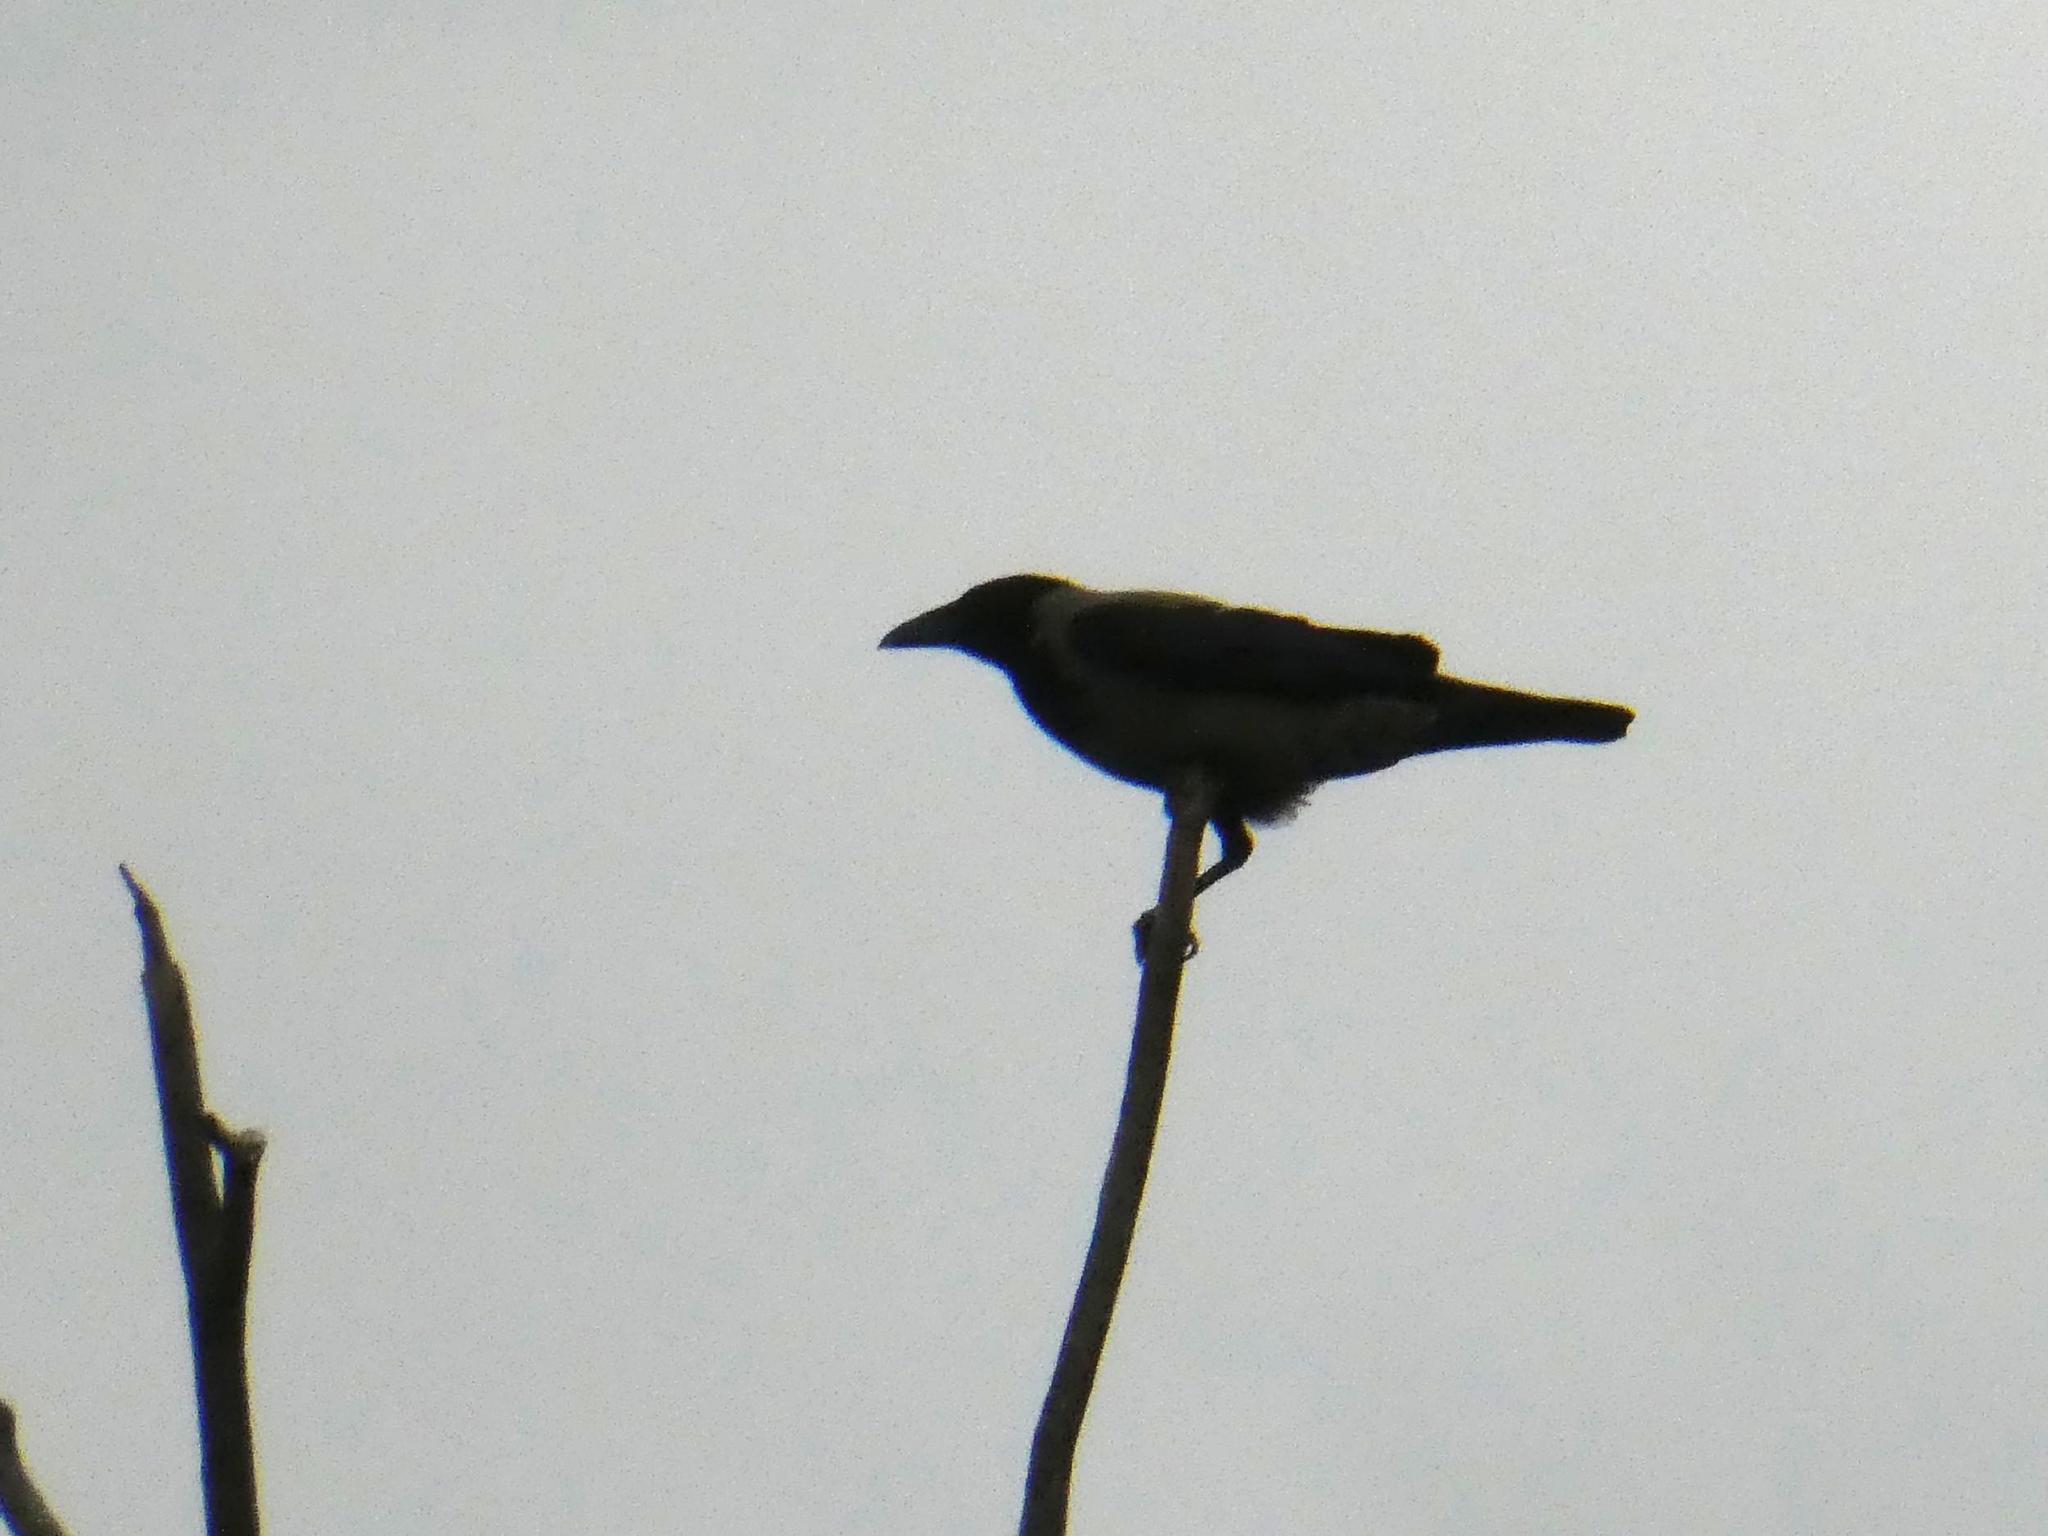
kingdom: Animalia
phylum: Chordata
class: Aves
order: Passeriformes
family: Corvidae
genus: Corvus
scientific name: Corvus cornix
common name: Hooded crow
